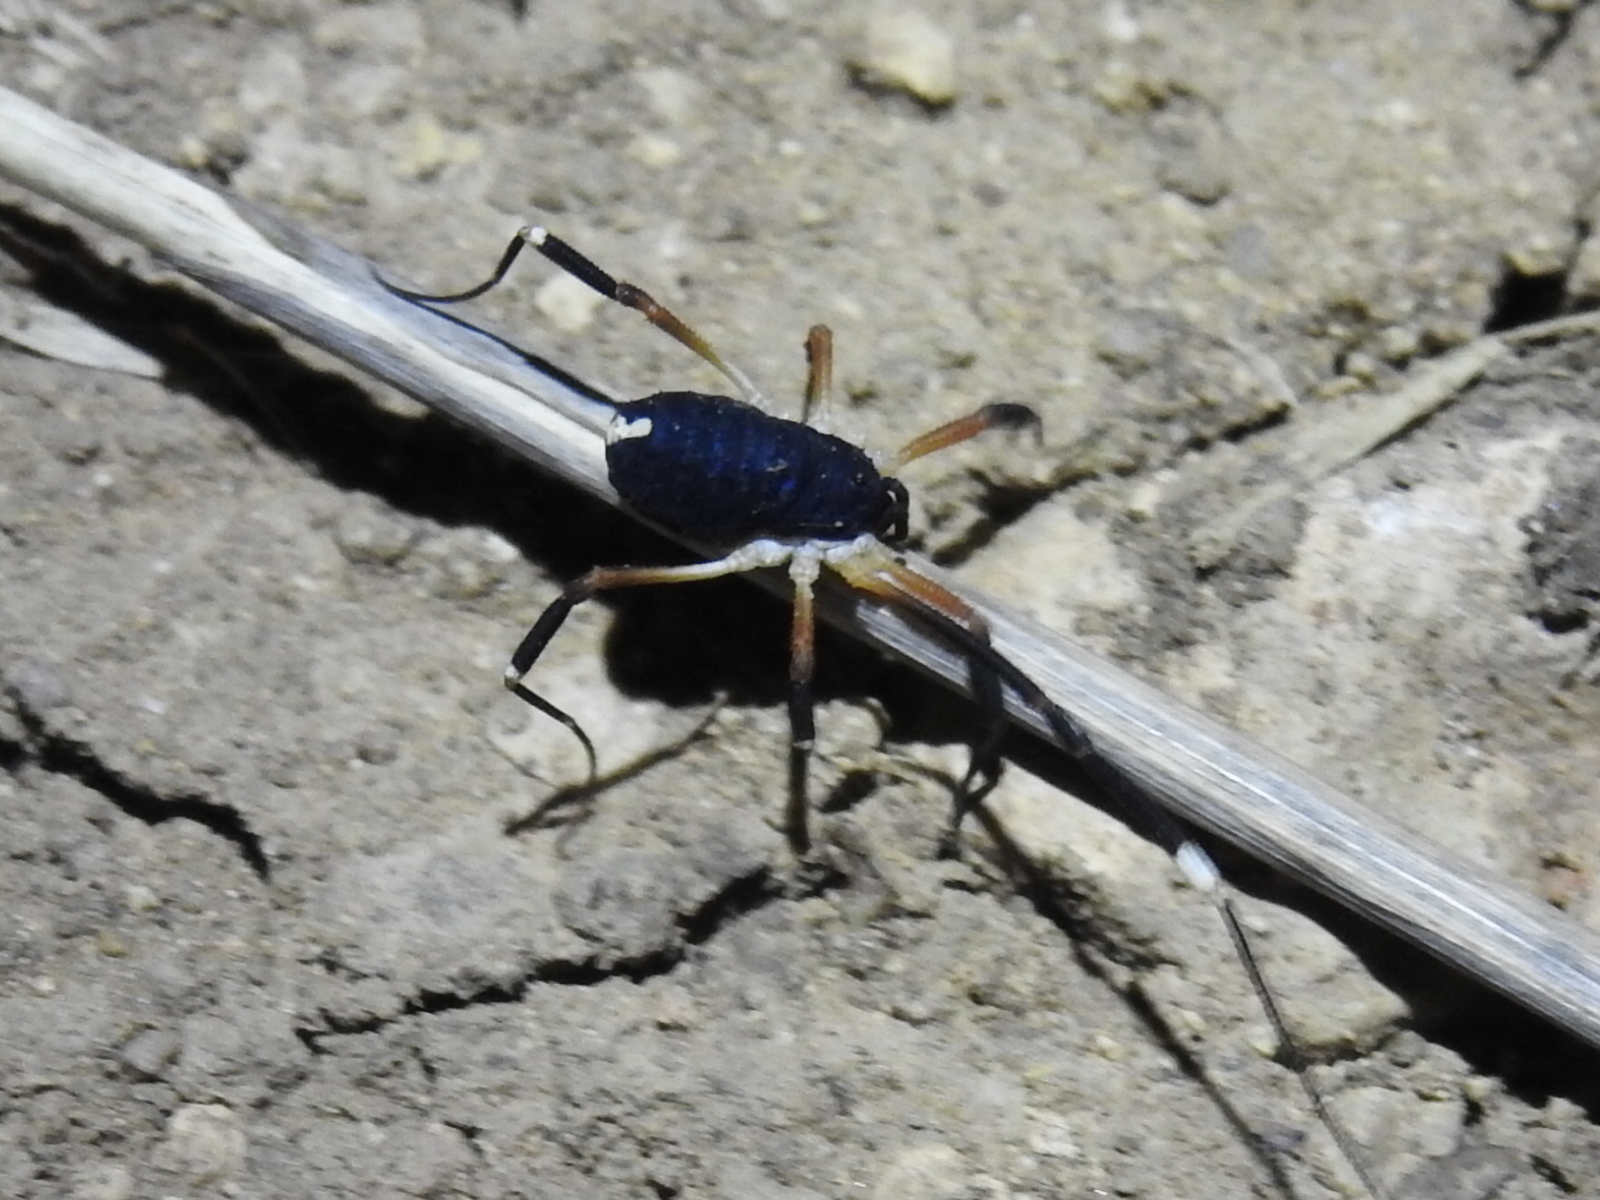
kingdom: Animalia
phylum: Arthropoda
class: Arachnida
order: Opiliones
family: Globipedidae
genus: Dalquestia
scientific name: Dalquestia formosa
